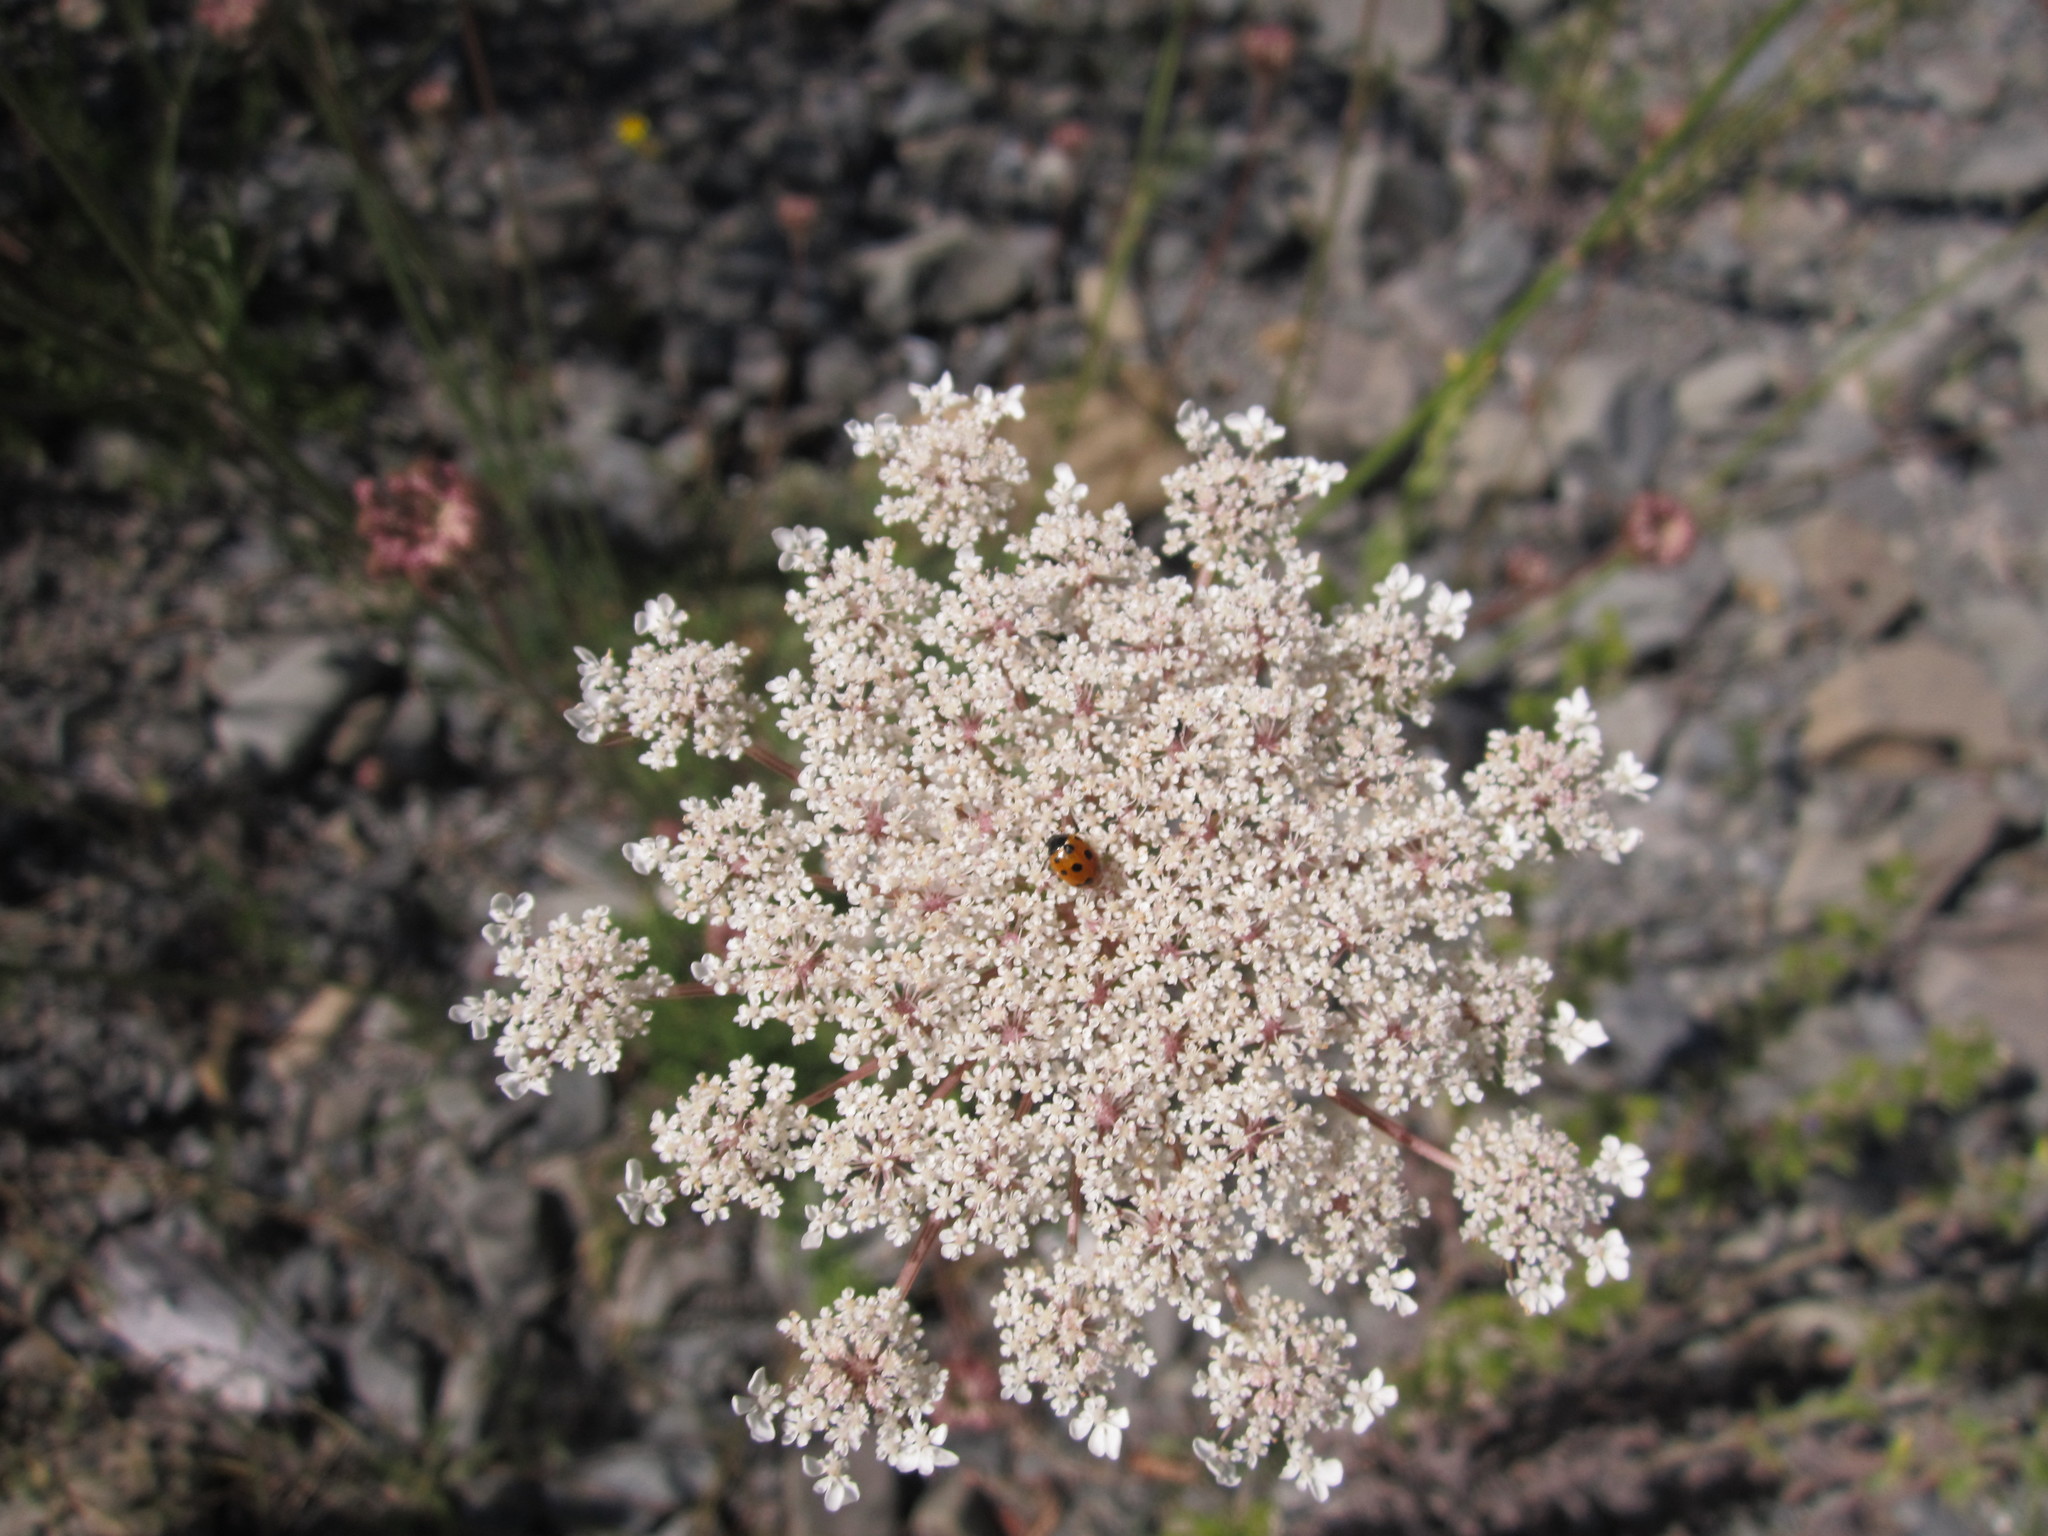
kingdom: Animalia
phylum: Arthropoda
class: Insecta
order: Coleoptera
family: Coccinellidae
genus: Coccinella
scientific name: Coccinella undecimpunctata
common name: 11-spot ladybird
